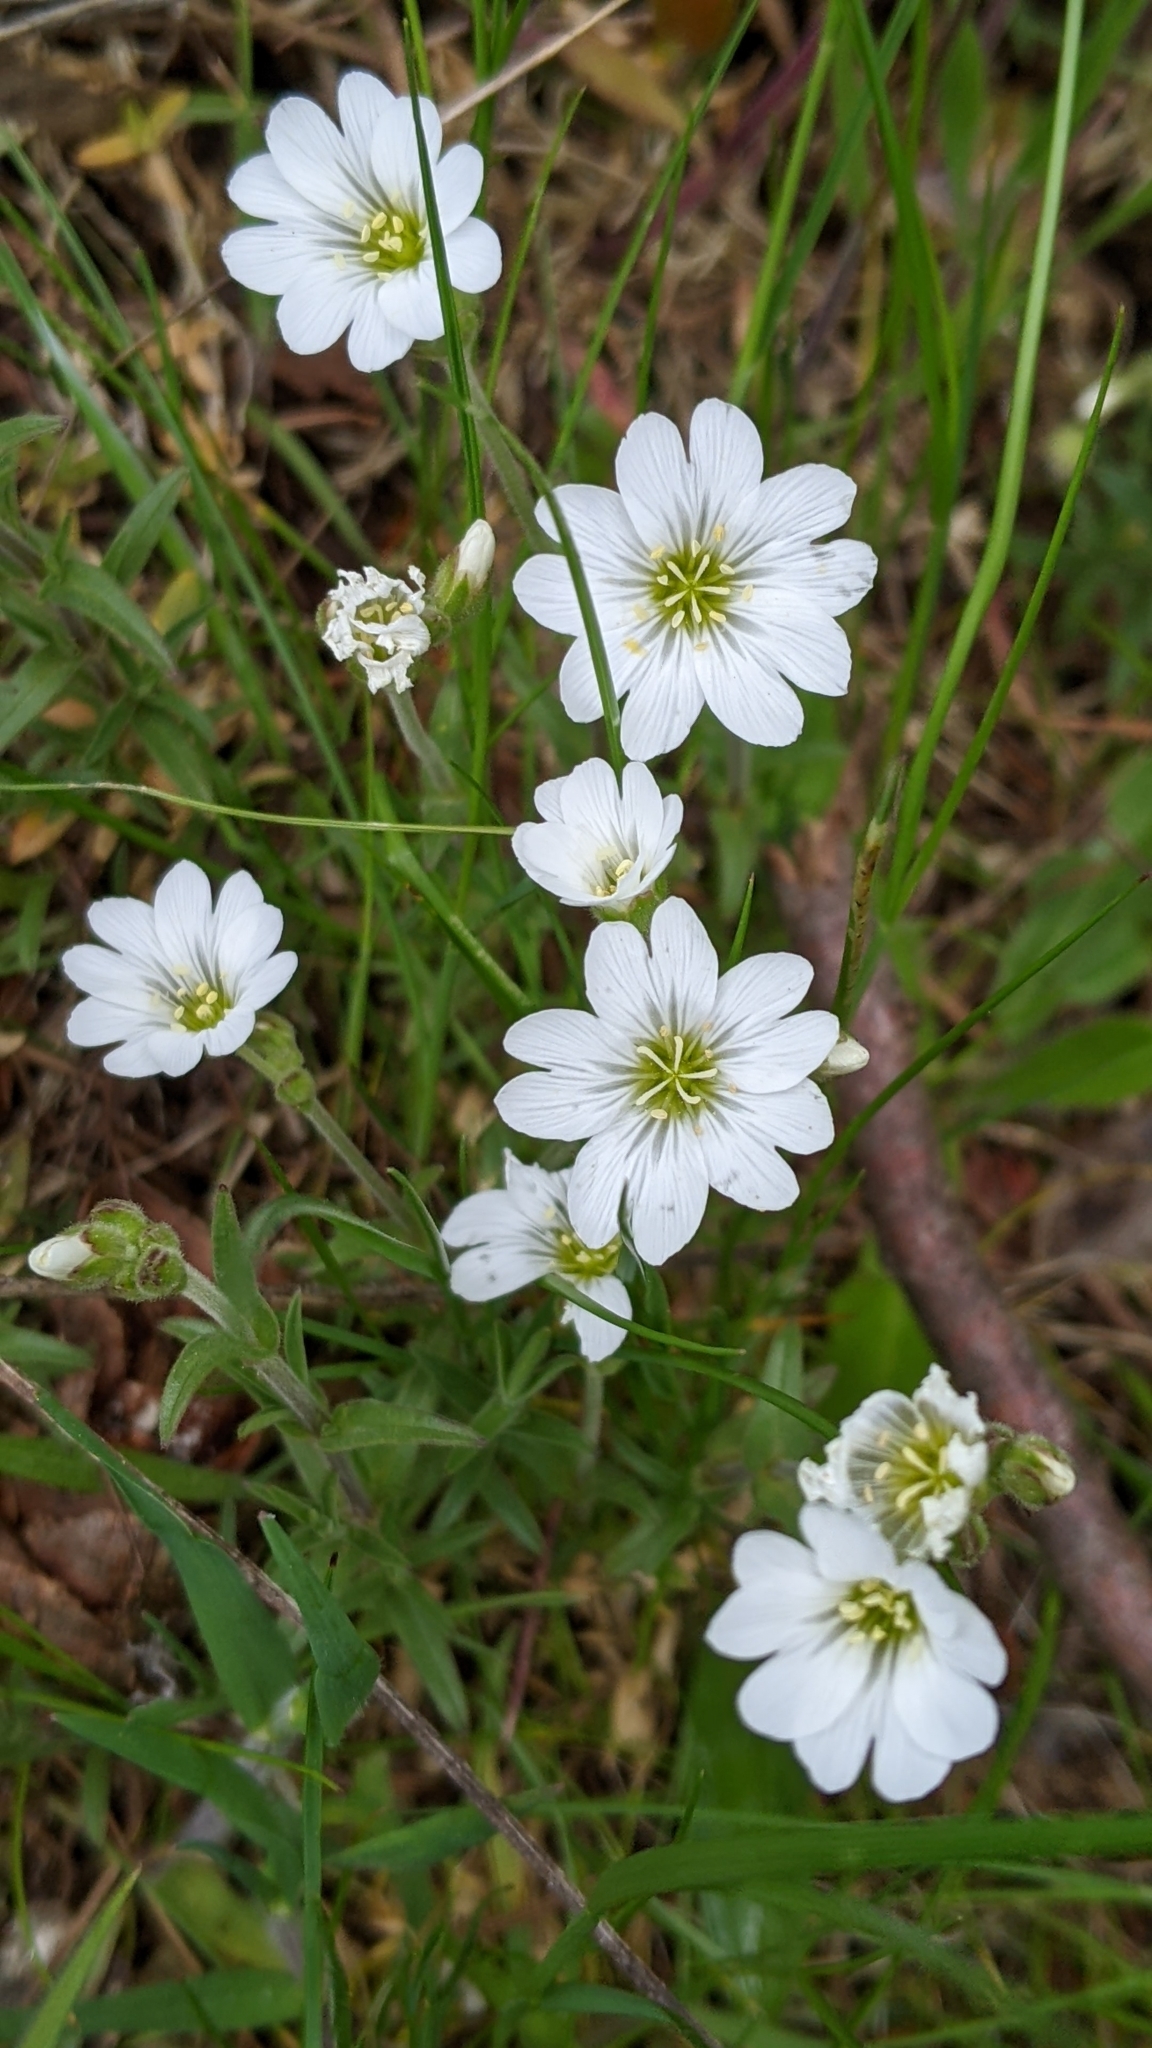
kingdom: Plantae
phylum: Tracheophyta
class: Magnoliopsida
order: Caryophyllales
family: Caryophyllaceae
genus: Cerastium
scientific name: Cerastium arvense
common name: Field mouse-ear
